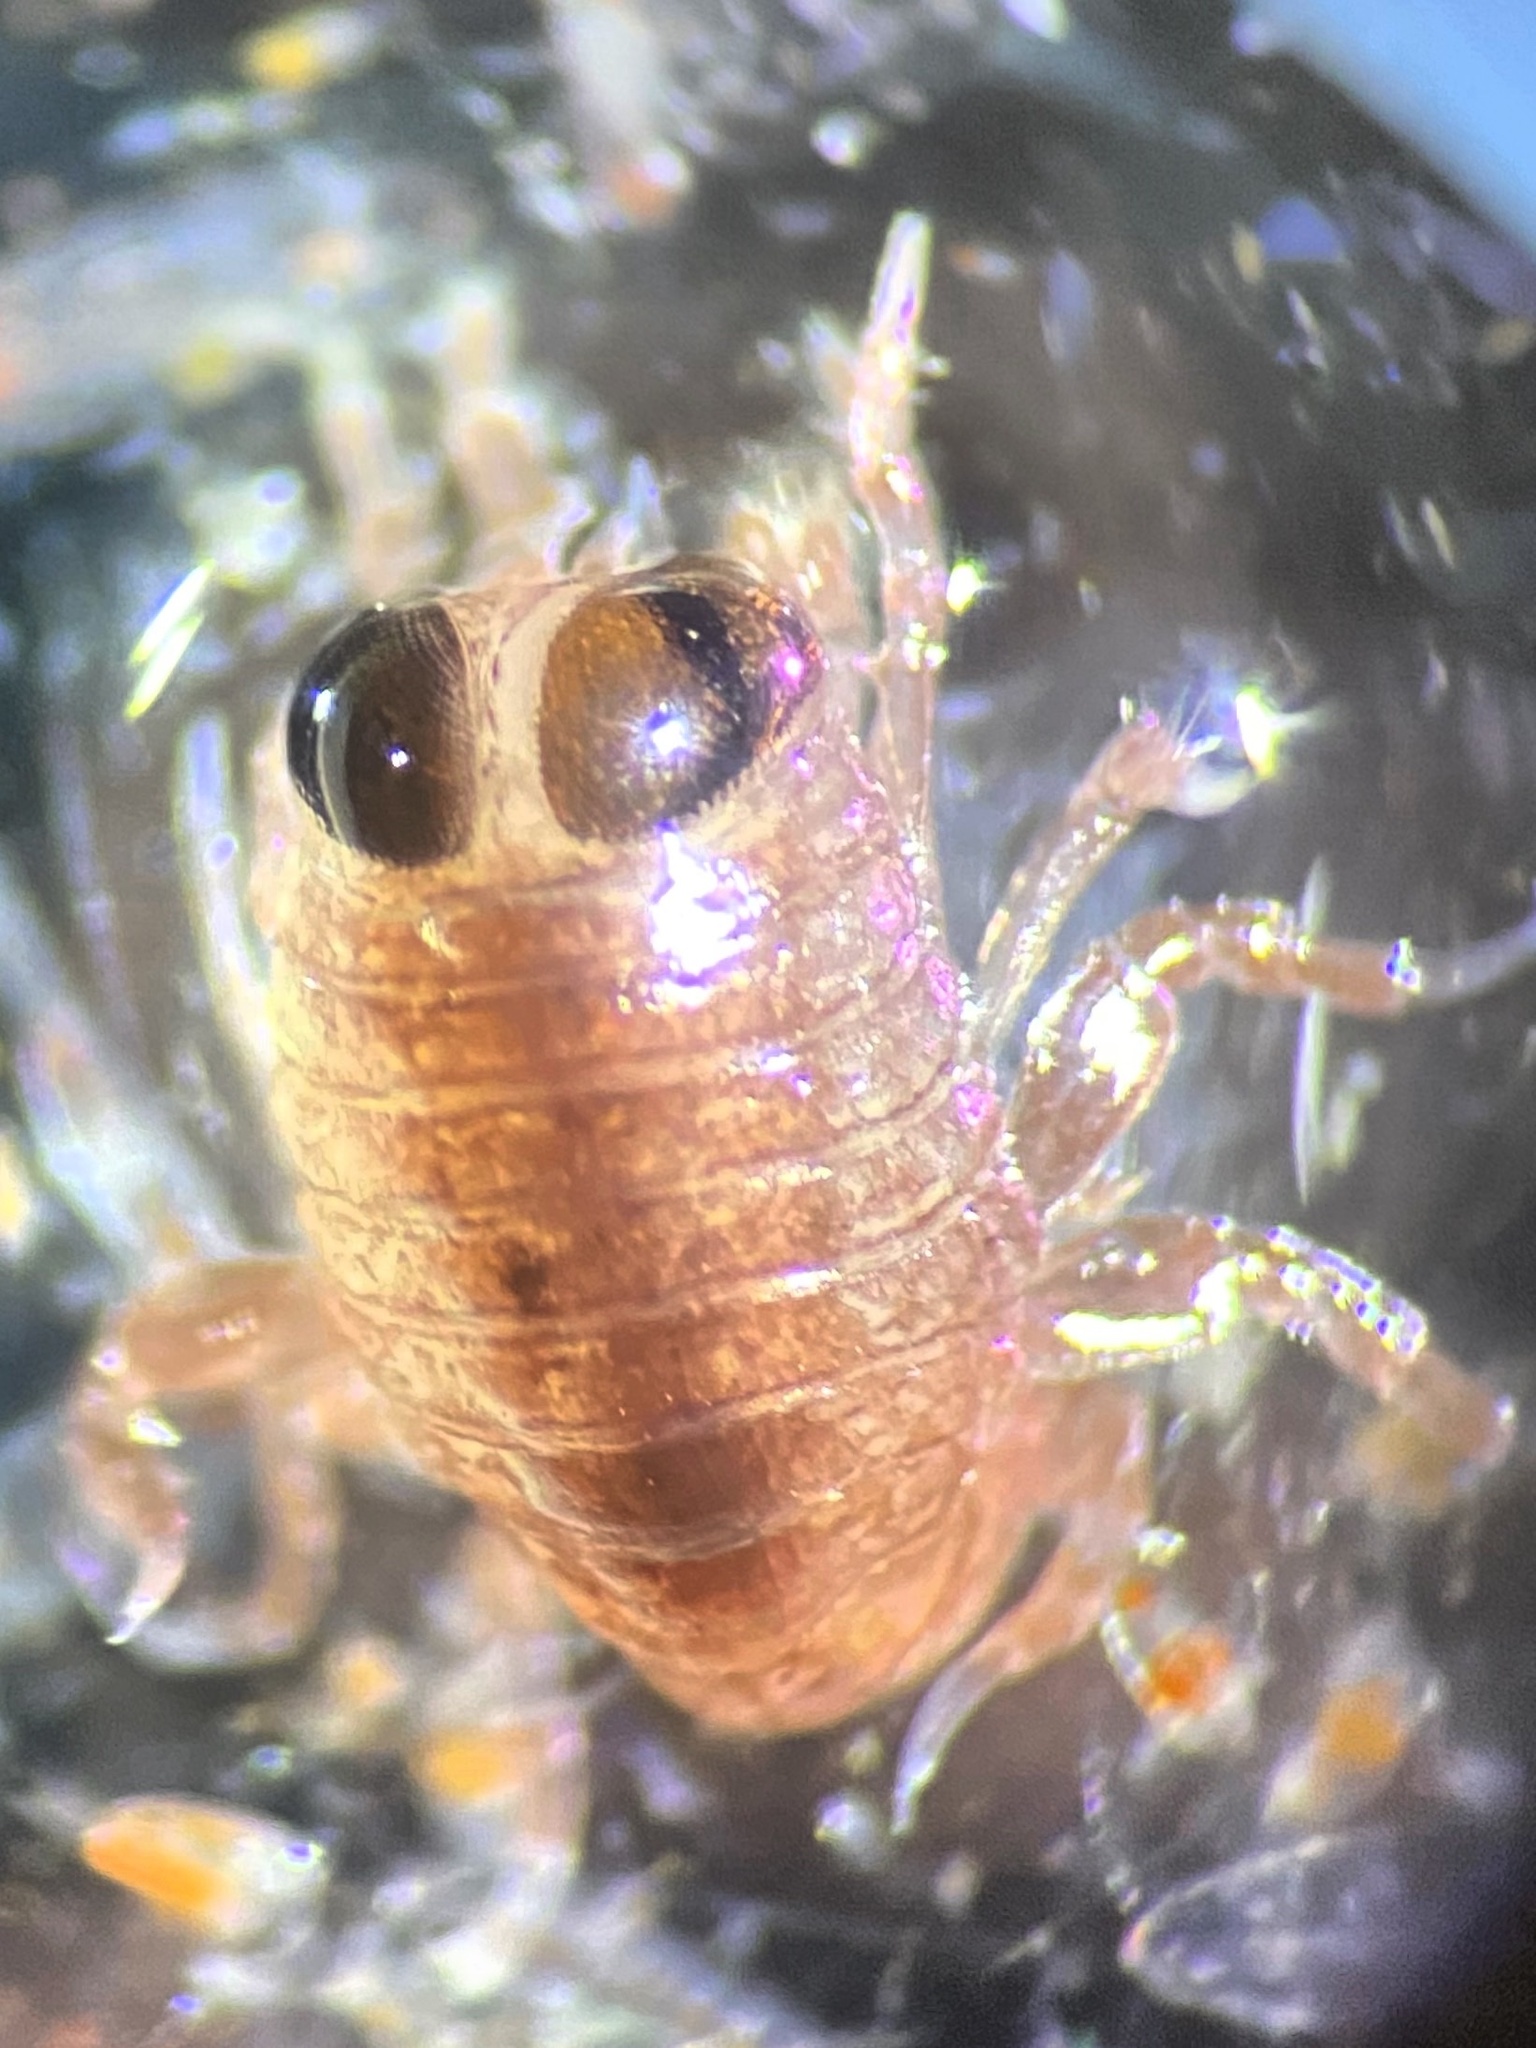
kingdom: Animalia
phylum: Arthropoda
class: Malacostraca
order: Amphipoda
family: Hyperiidae
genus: Hyperia
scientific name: Hyperia galba
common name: Big-eye amphipod
